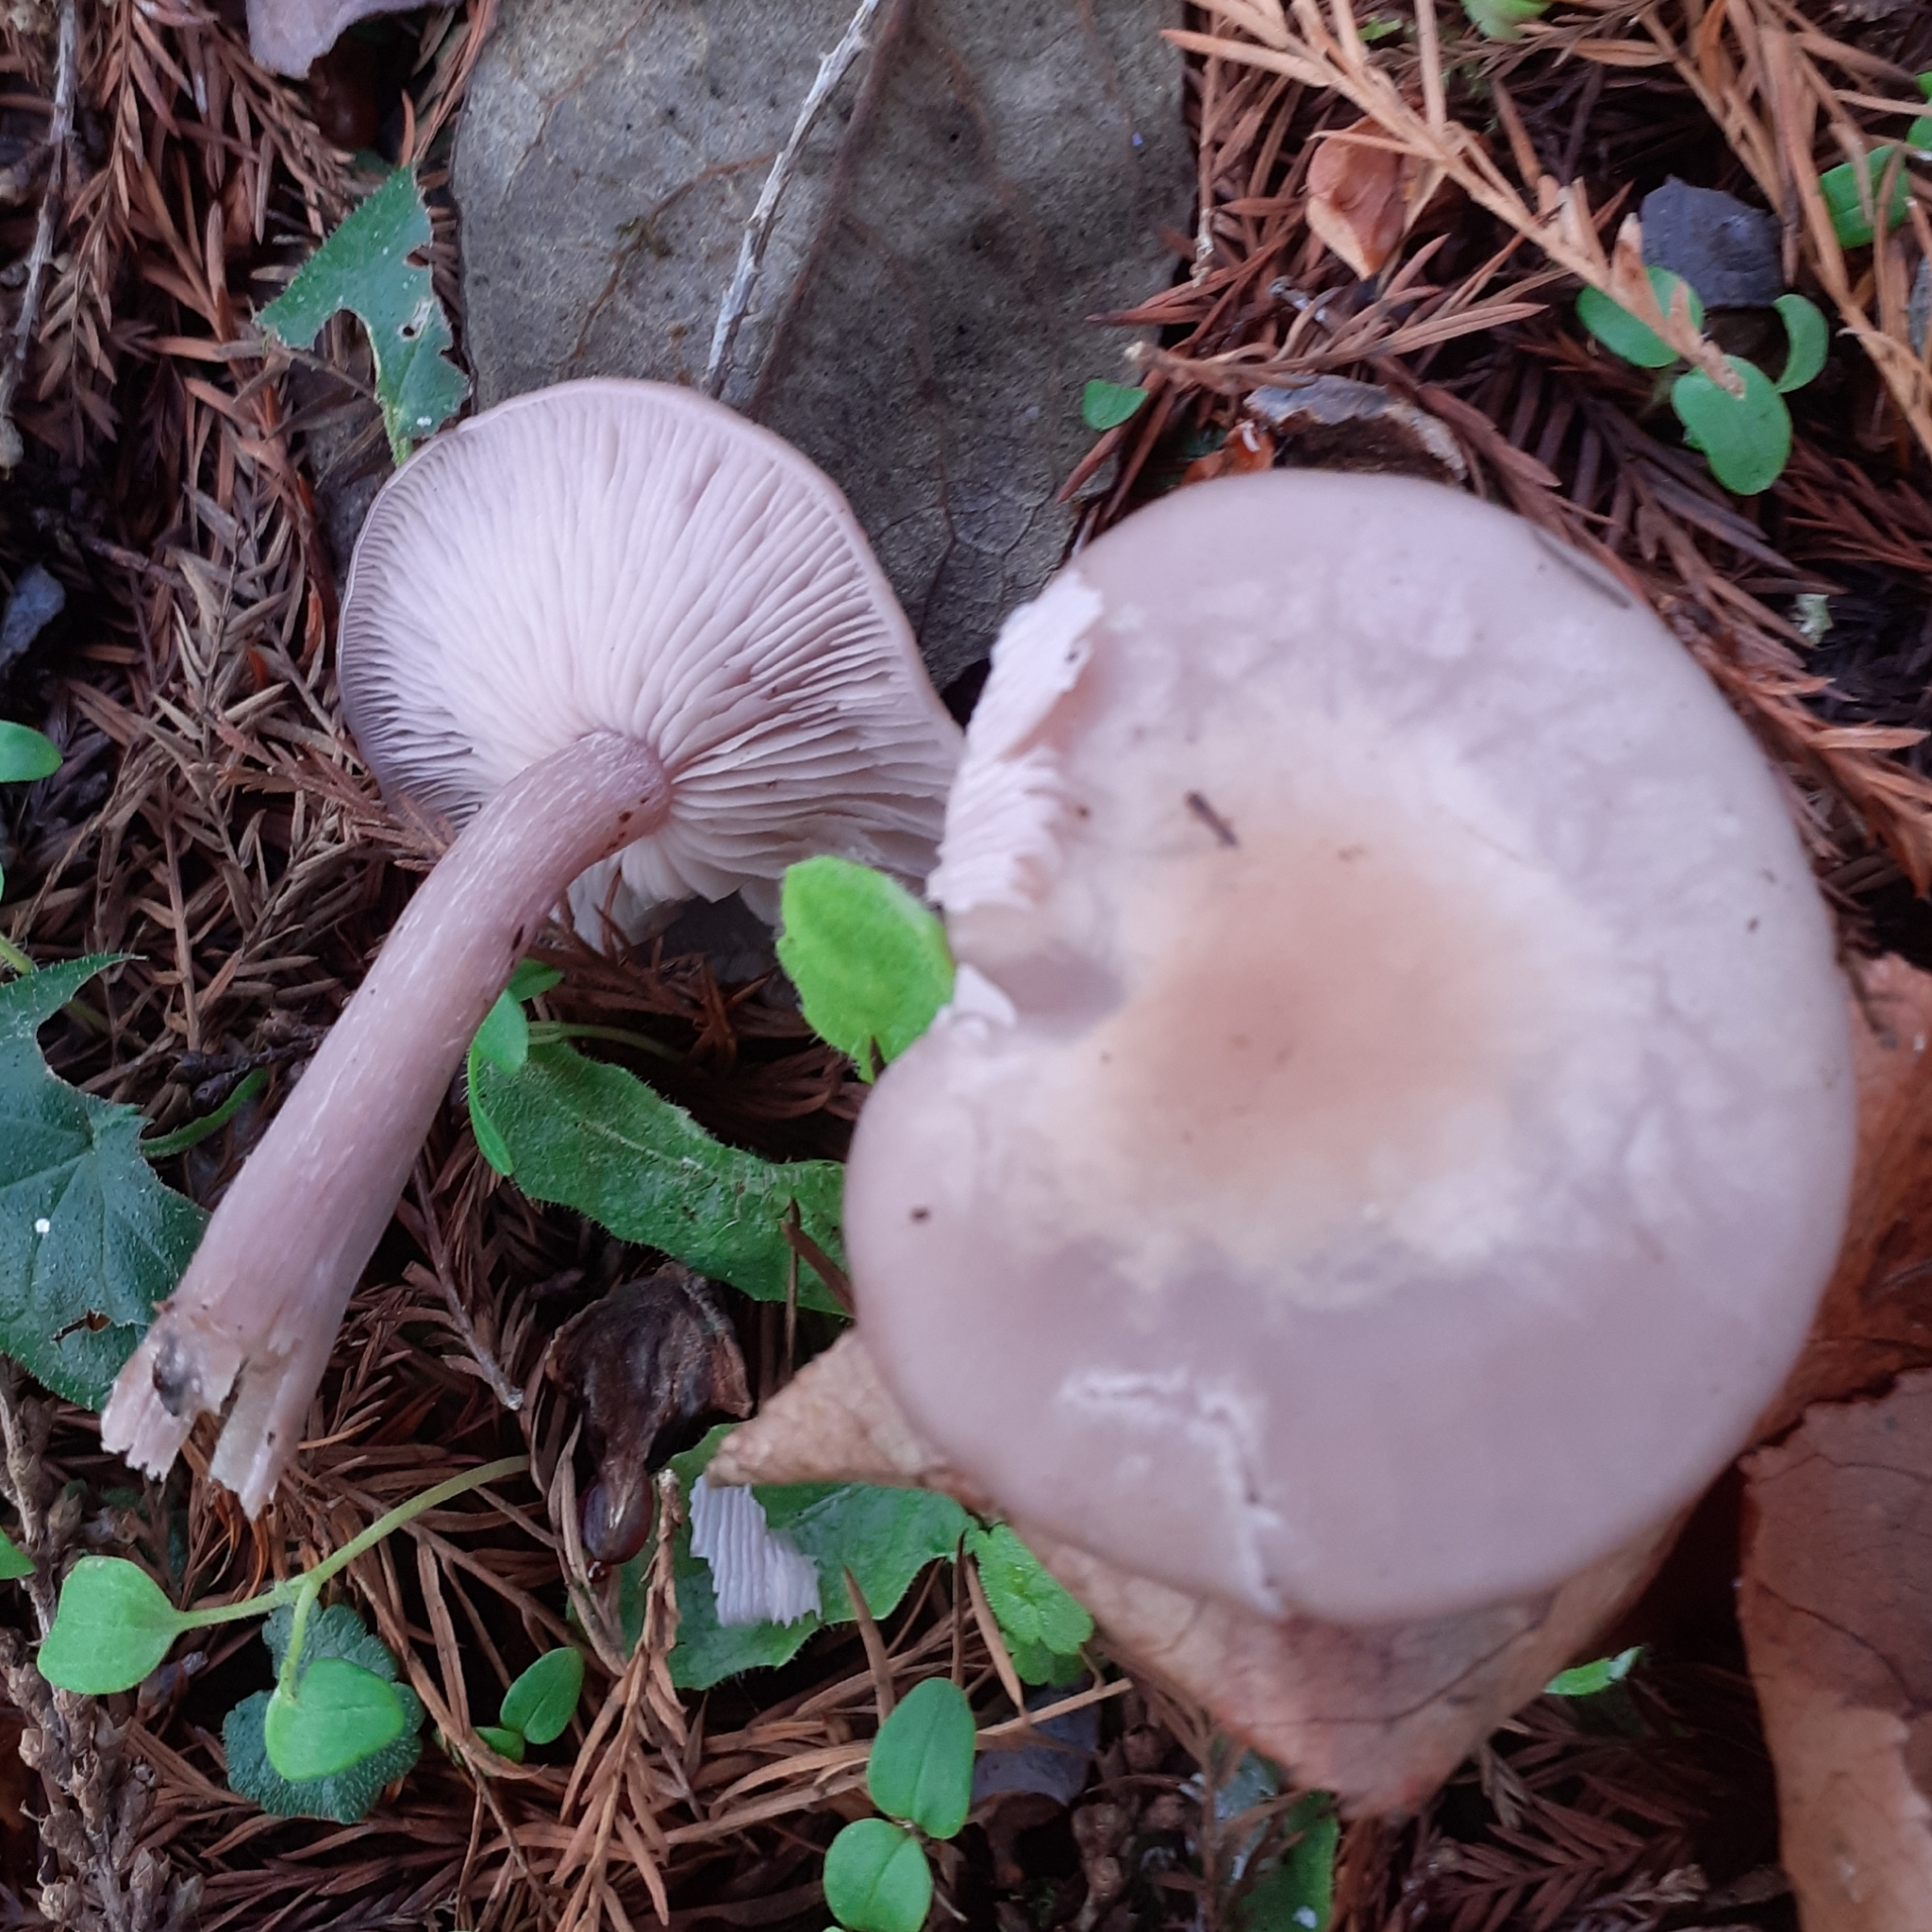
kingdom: Fungi
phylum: Basidiomycota
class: Agaricomycetes
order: Agaricales
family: Tricholomataceae
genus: Collybia
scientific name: Collybia
